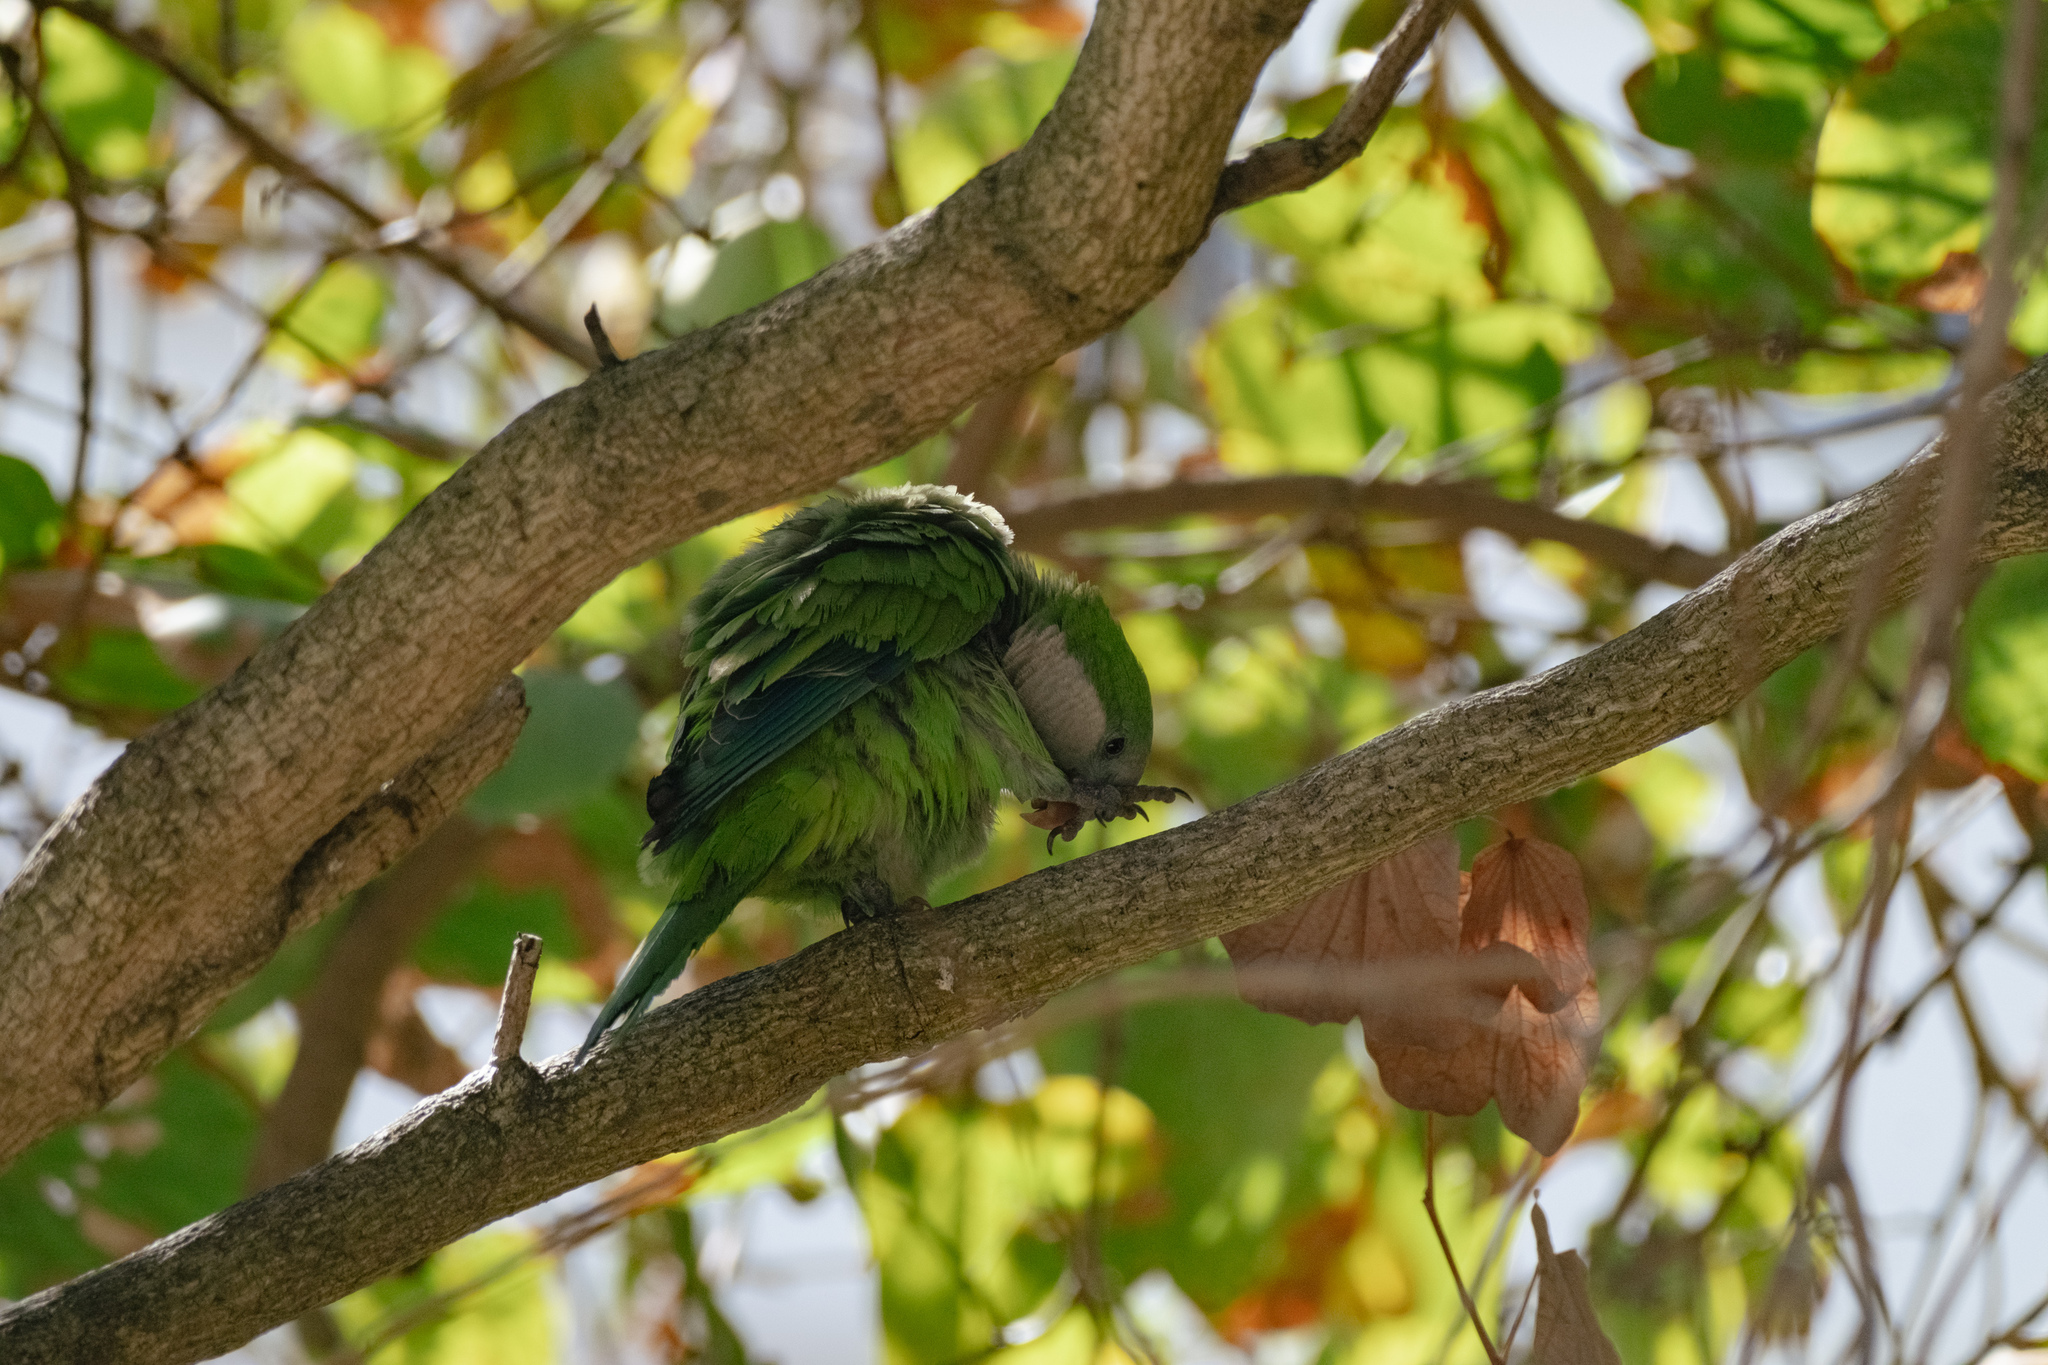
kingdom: Animalia
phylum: Chordata
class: Aves
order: Psittaciformes
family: Psittacidae
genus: Myiopsitta
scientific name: Myiopsitta monachus
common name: Monk parakeet
